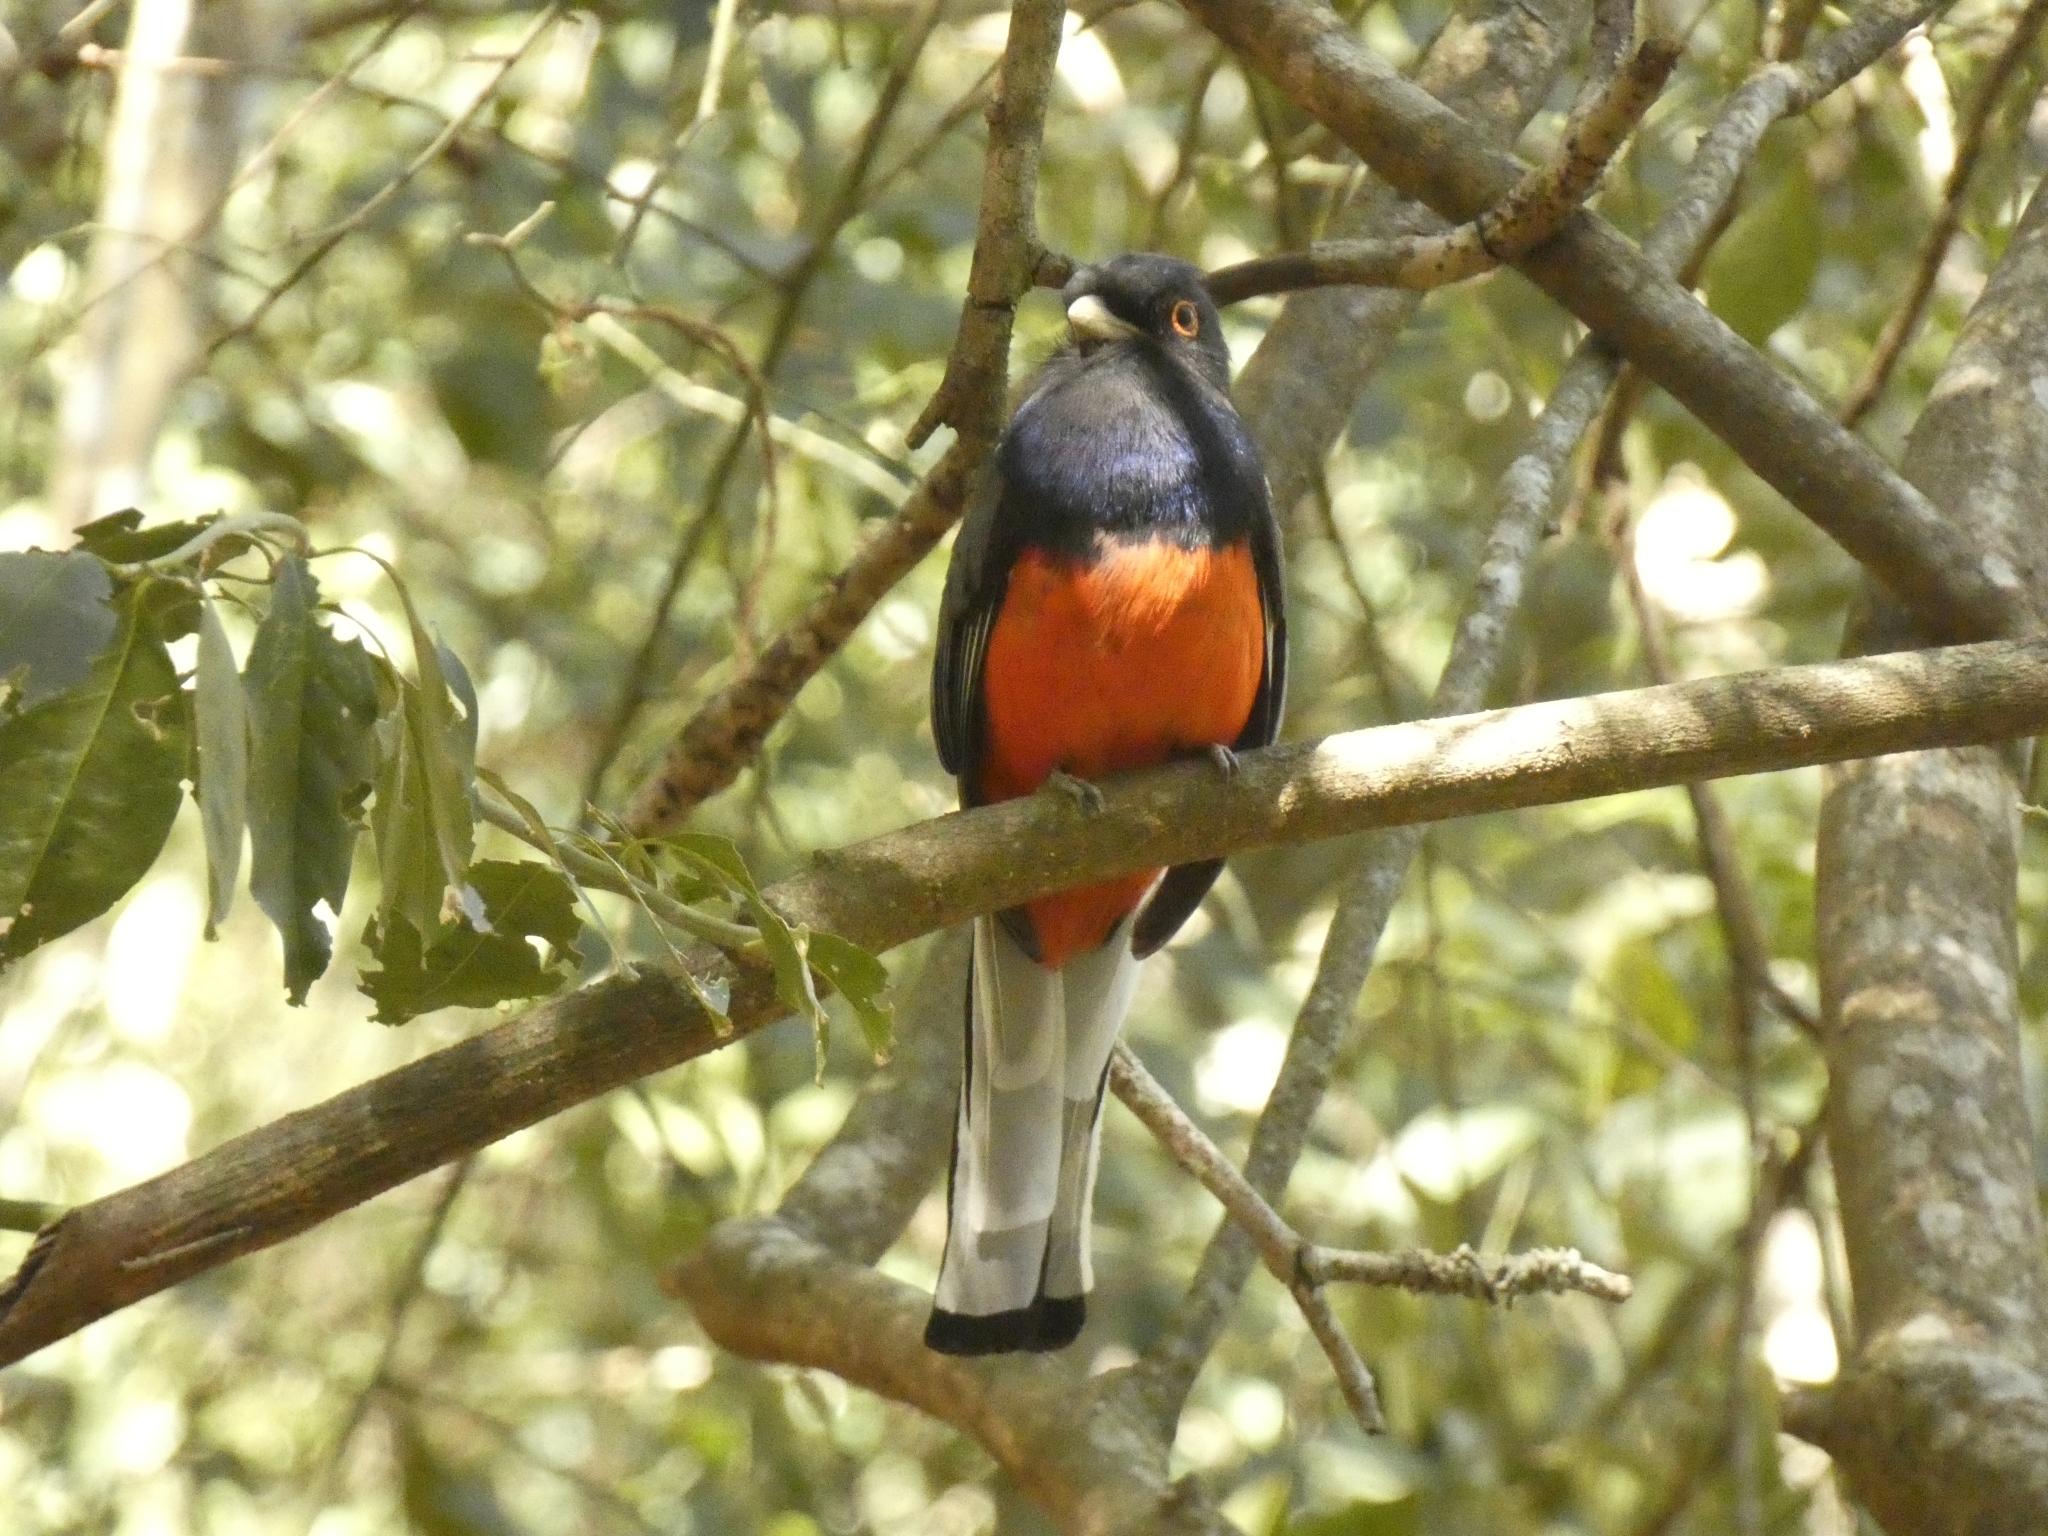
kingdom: Animalia
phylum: Chordata
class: Aves
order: Trogoniformes
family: Trogonidae
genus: Trogon
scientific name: Trogon surrucura
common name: Surucua trogon
